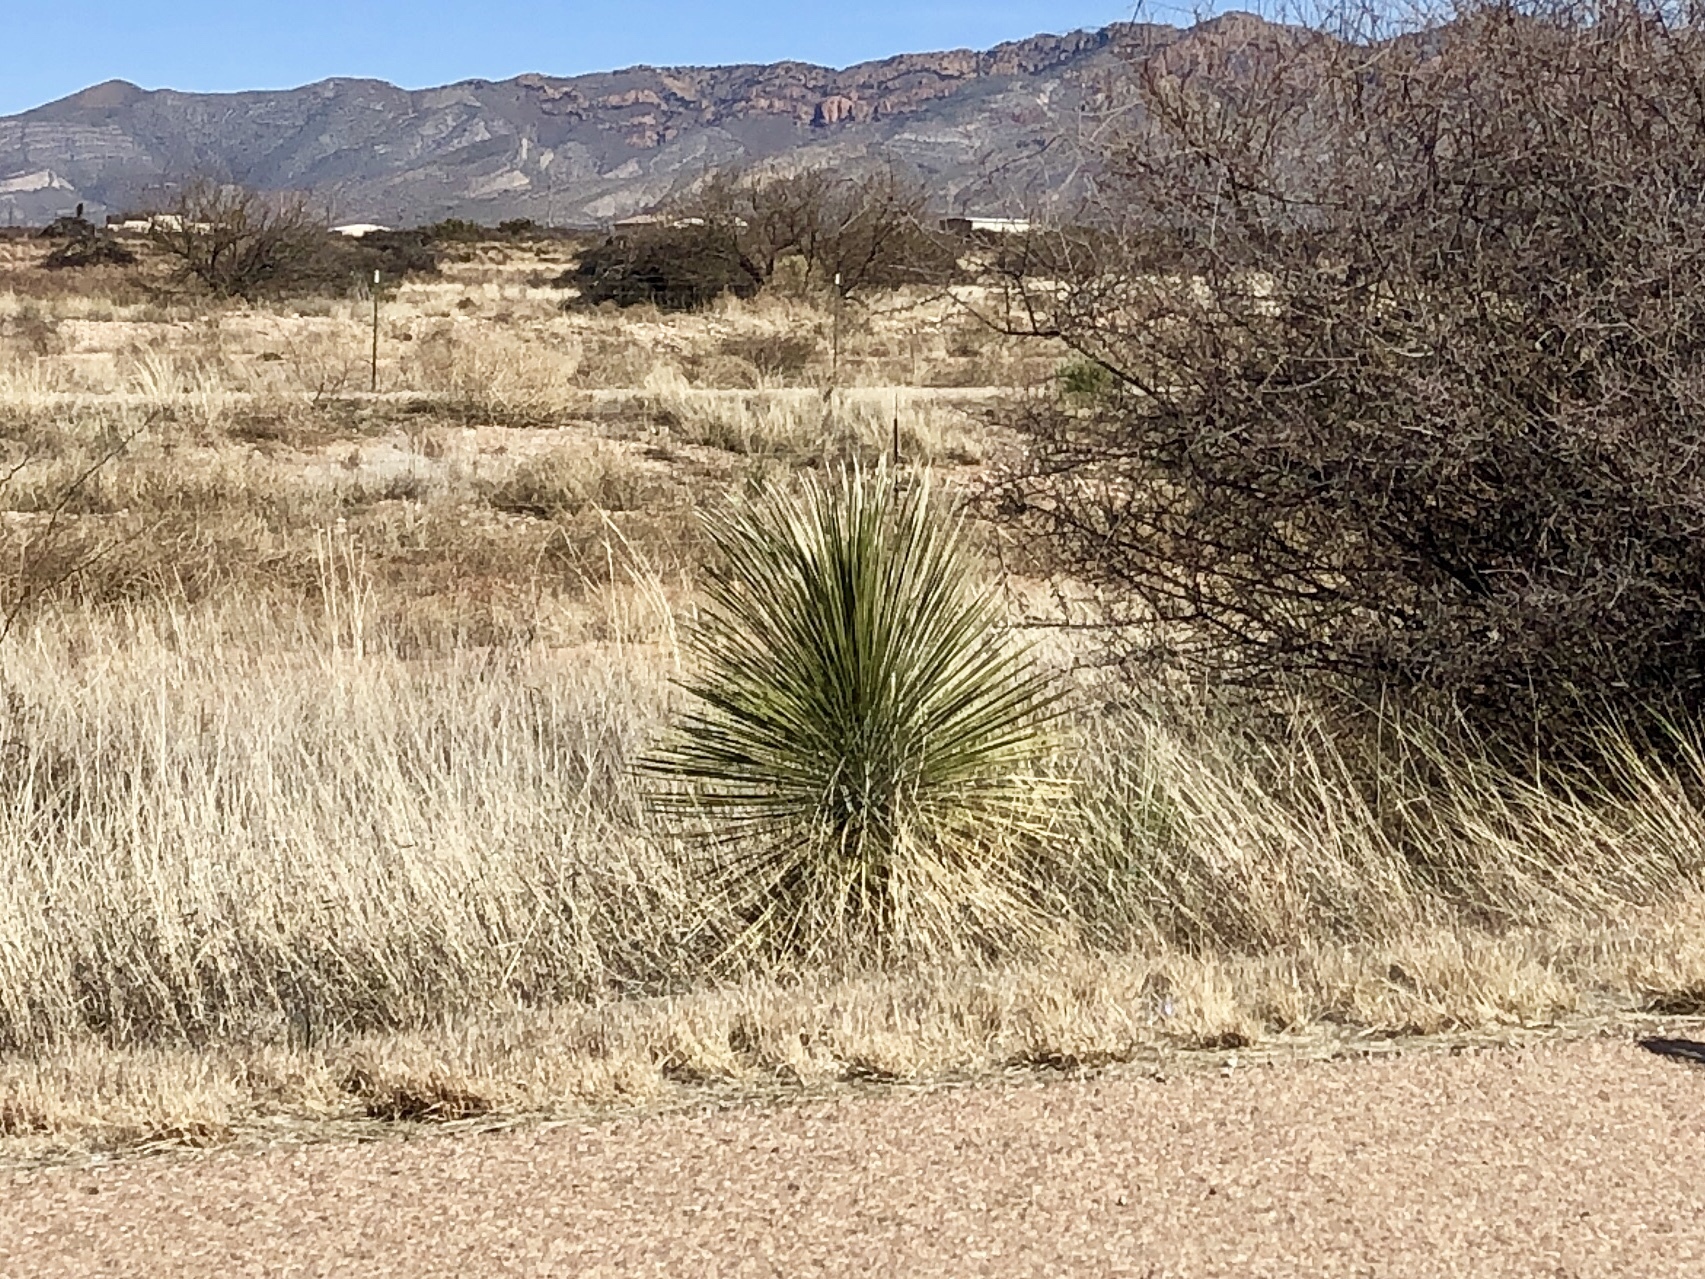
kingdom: Plantae
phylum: Tracheophyta
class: Liliopsida
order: Asparagales
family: Asparagaceae
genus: Yucca
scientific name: Yucca elata
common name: Palmella
